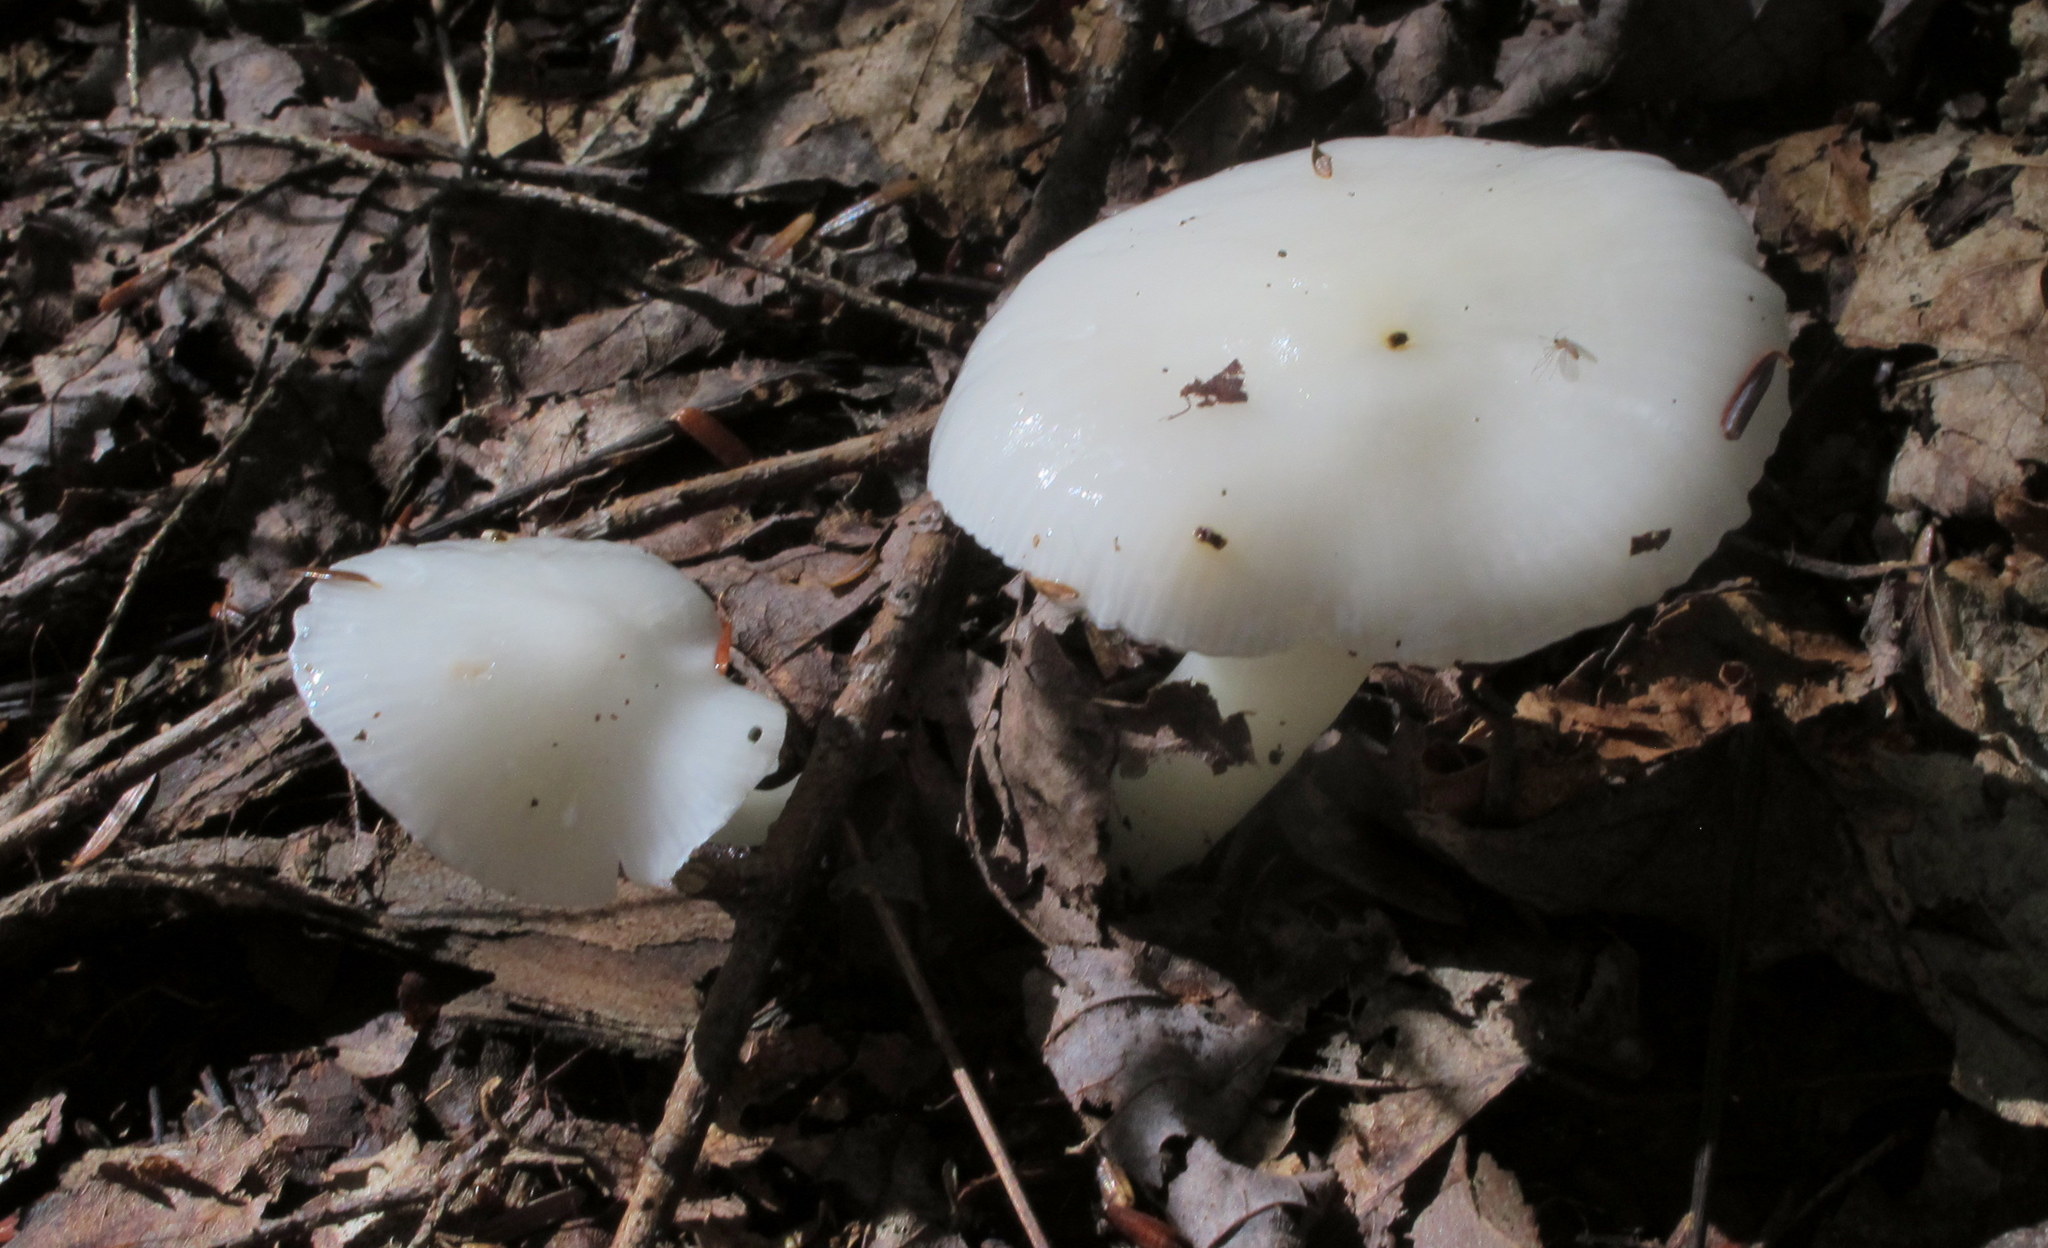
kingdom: Fungi
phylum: Basidiomycota
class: Agaricomycetes
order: Agaricales
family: Hygrophoraceae
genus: Hygrophorus
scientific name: Hygrophorus eburneus
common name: Ivory wax-cap
